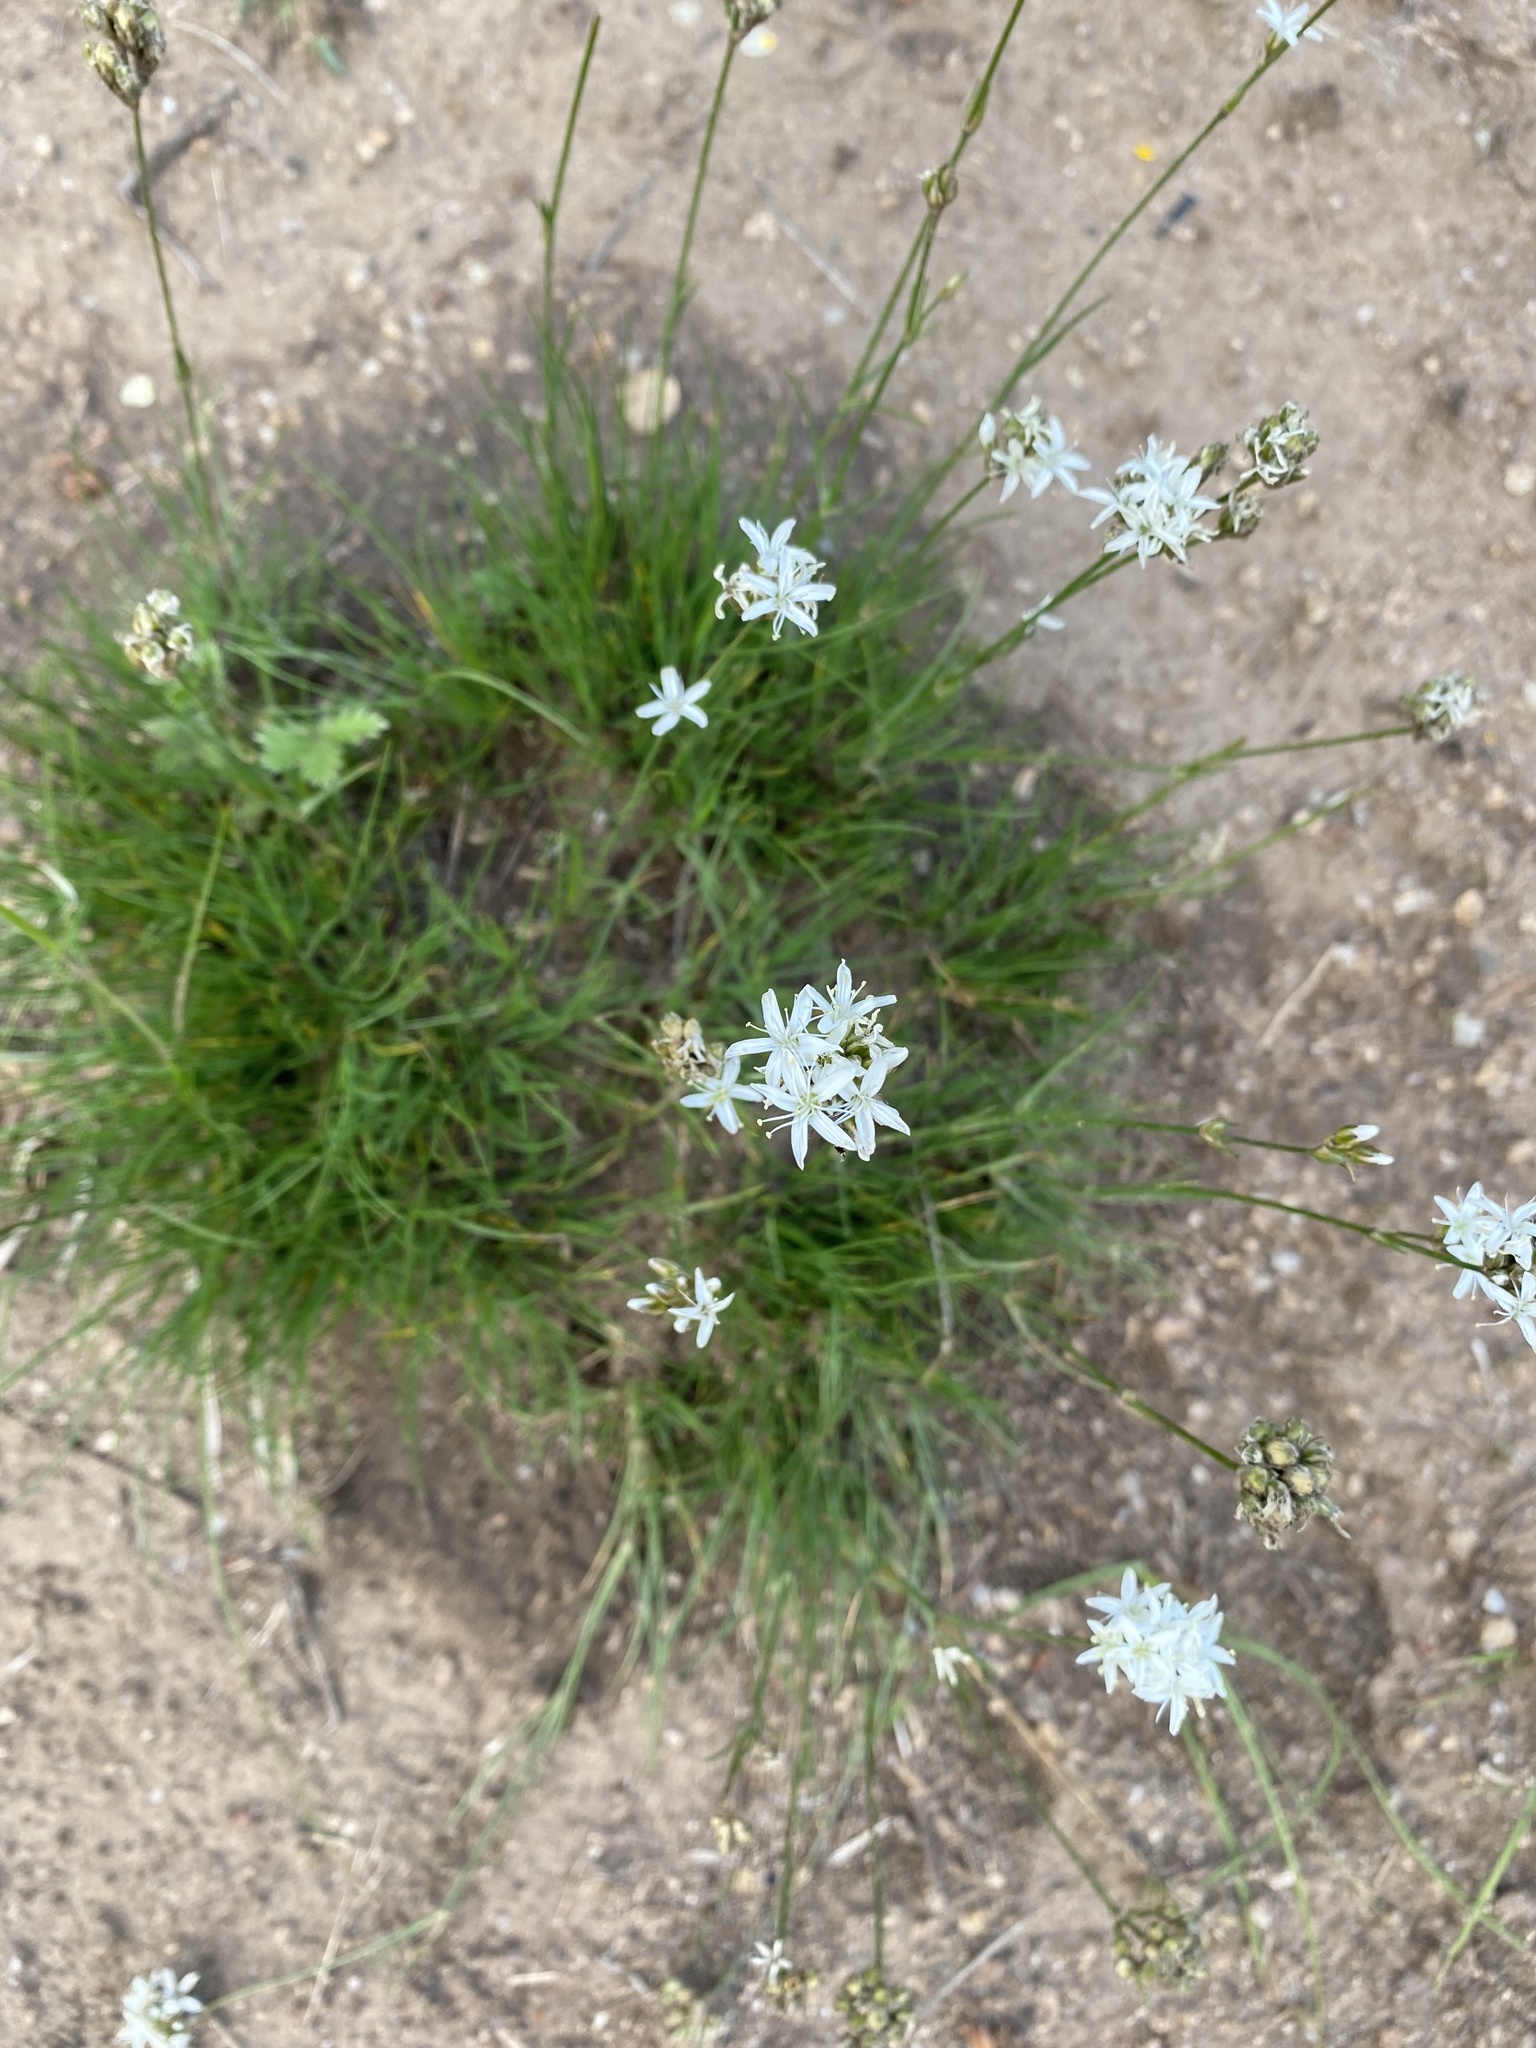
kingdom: Plantae
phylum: Tracheophyta
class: Magnoliopsida
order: Caryophyllales
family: Caryophyllaceae
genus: Eremogone
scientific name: Eremogone congesta
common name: Ballhead sandwort
